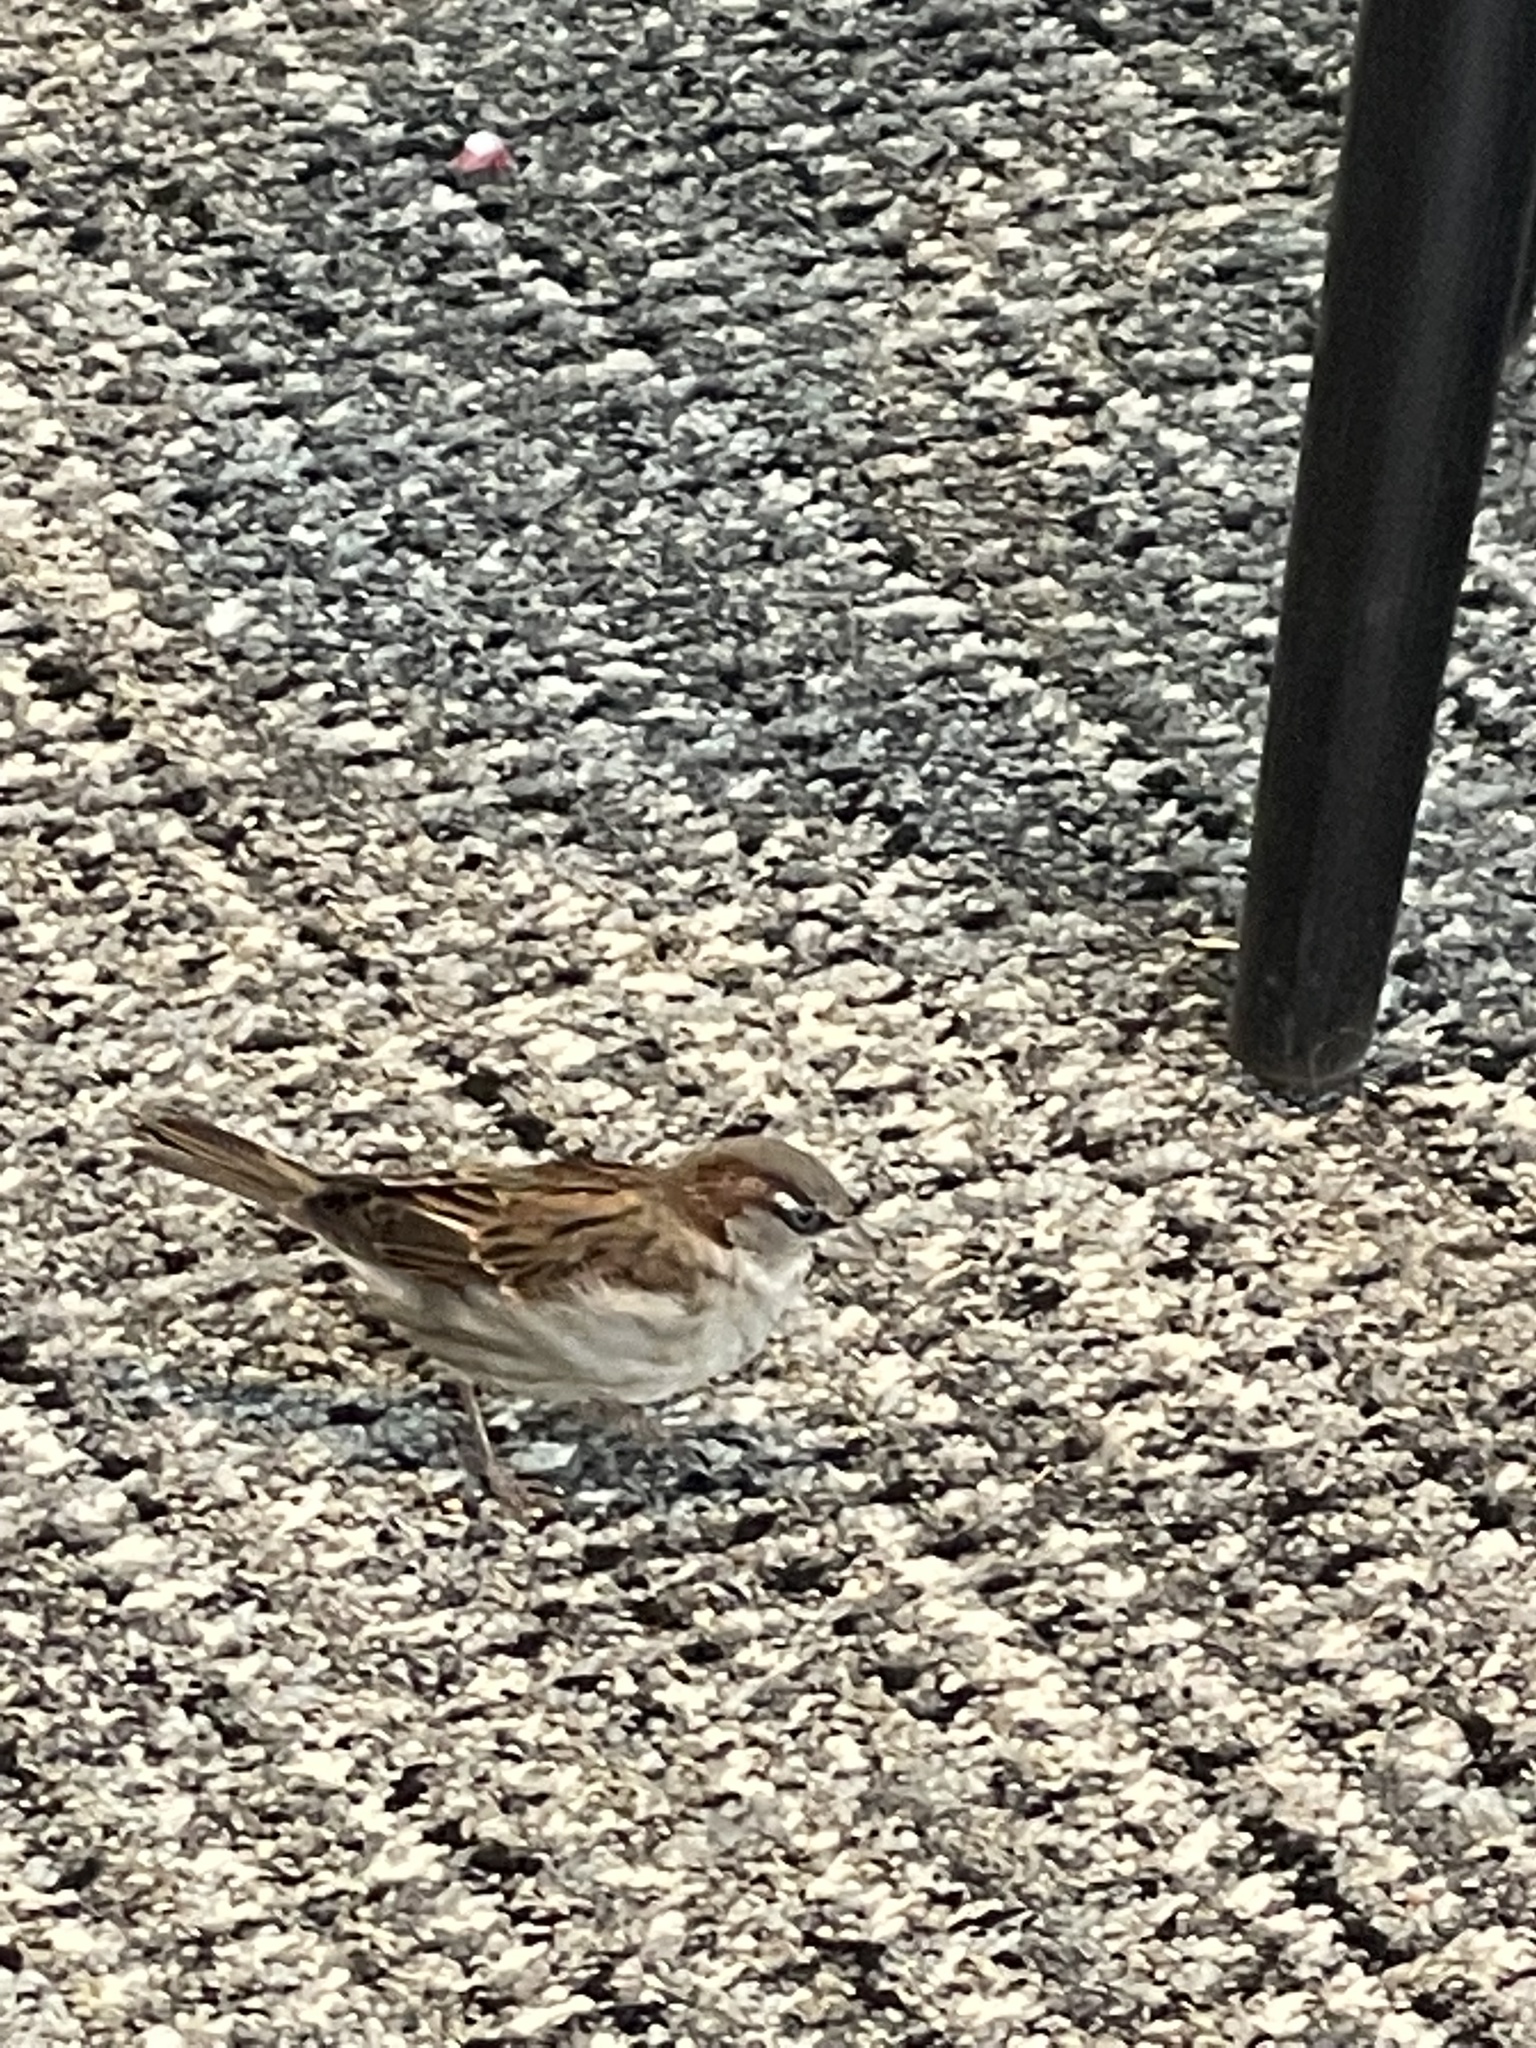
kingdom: Animalia
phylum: Chordata
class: Aves
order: Passeriformes
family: Passeridae
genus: Passer
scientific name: Passer domesticus
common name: House sparrow
